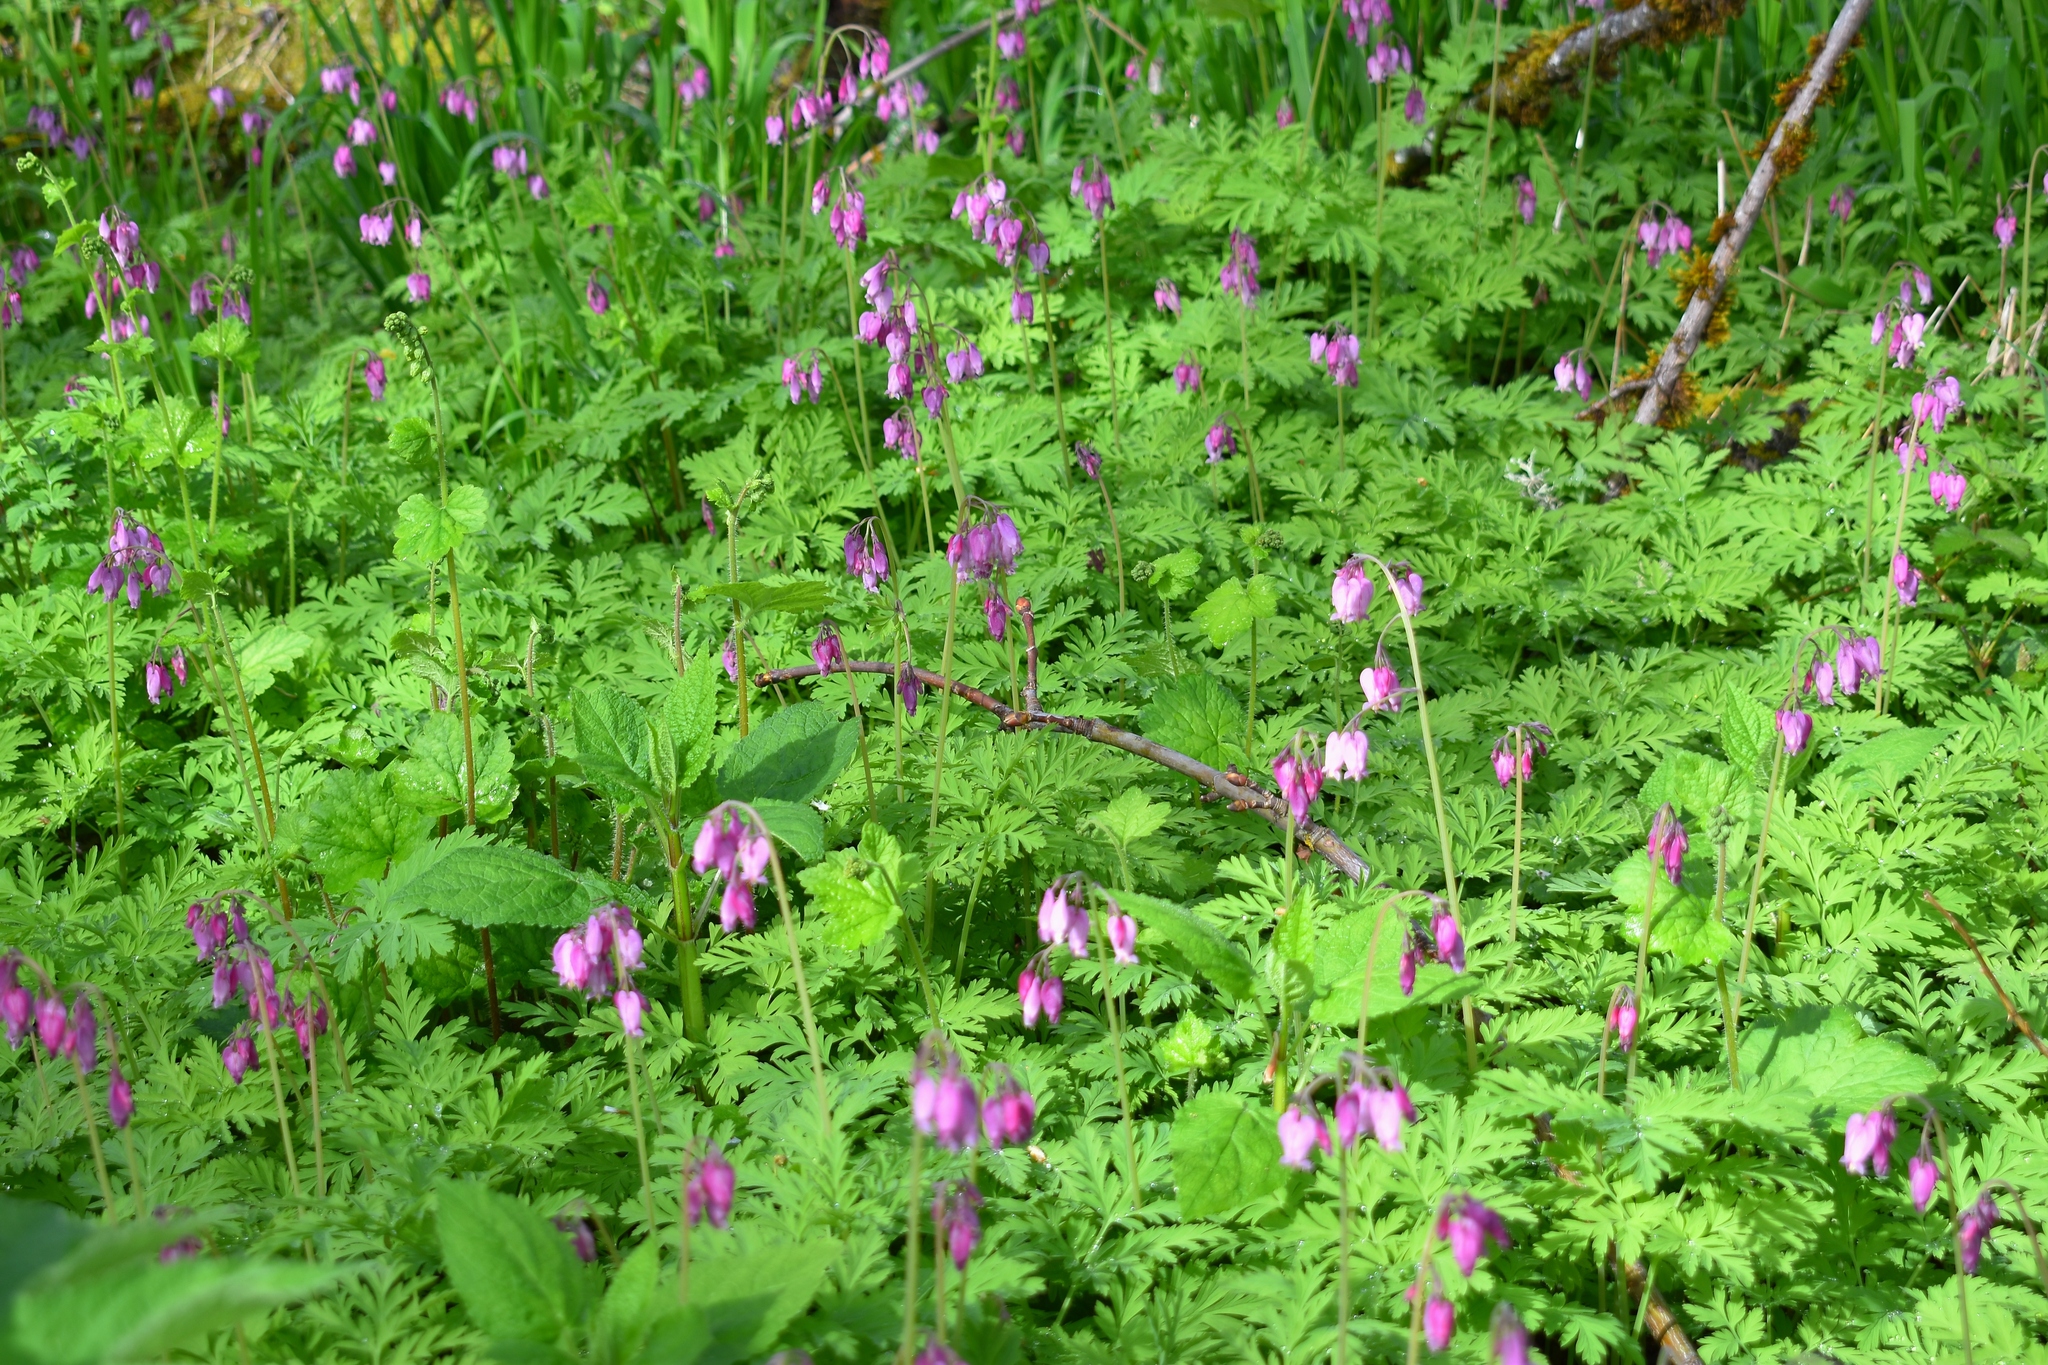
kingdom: Plantae
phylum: Tracheophyta
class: Magnoliopsida
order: Ranunculales
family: Papaveraceae
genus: Dicentra
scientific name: Dicentra formosa
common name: Bleeding-heart
